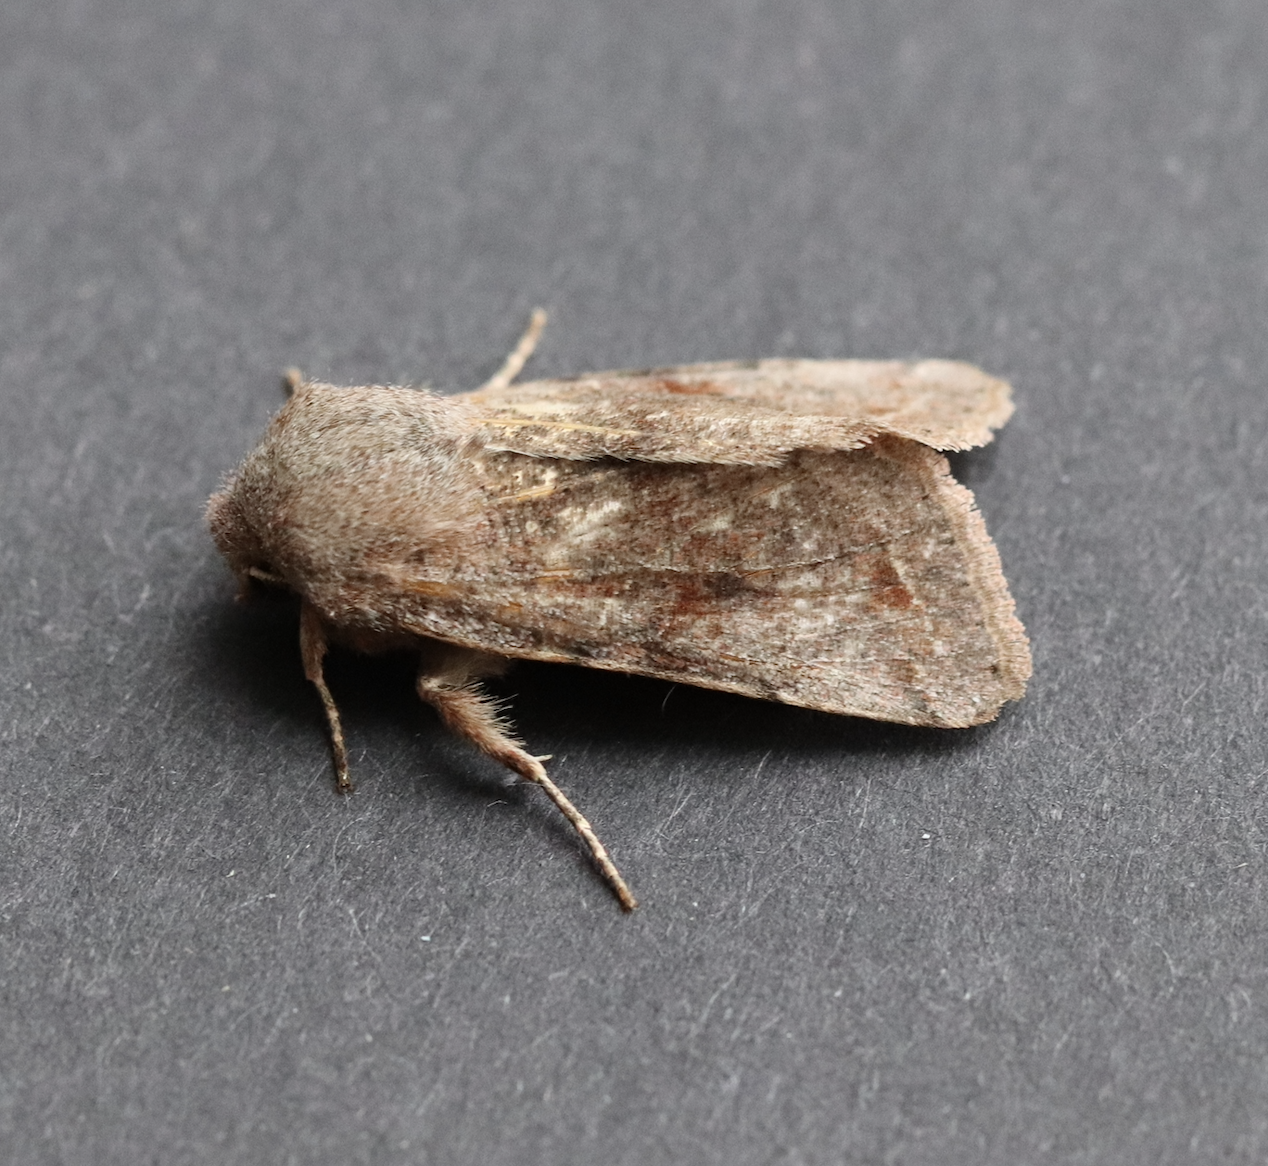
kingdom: Animalia
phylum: Arthropoda
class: Insecta
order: Lepidoptera
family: Noctuidae
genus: Orthosia
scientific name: Orthosia incerta
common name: Clouded drab
